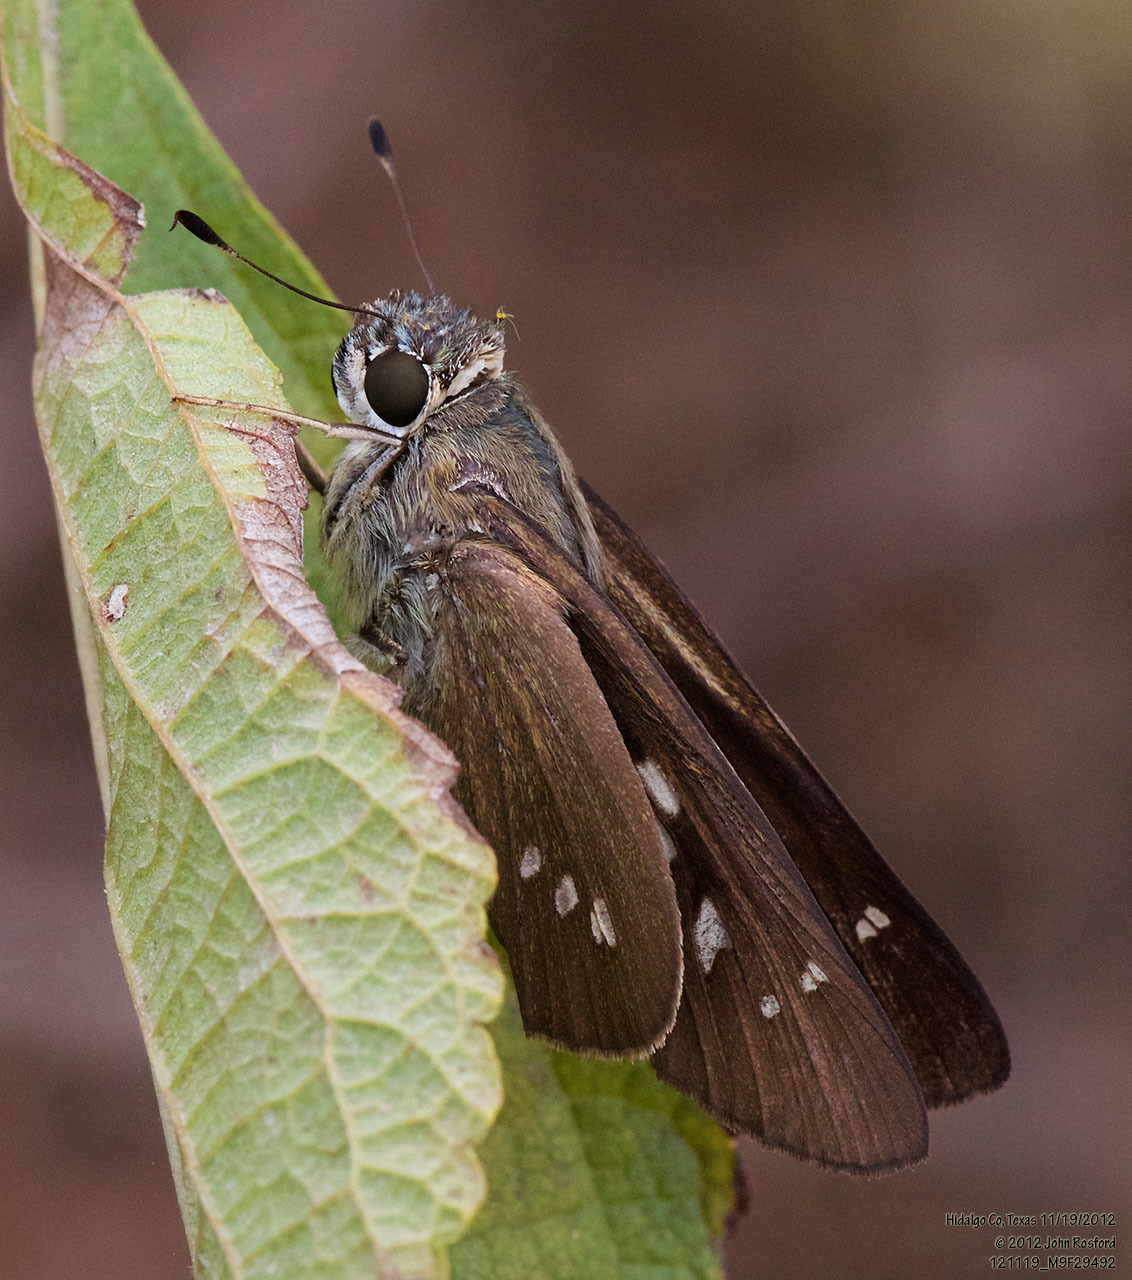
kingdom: Animalia
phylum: Arthropoda
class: Insecta
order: Lepidoptera
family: Hesperiidae
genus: Calpodes
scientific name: Calpodes ethlius
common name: Brazilian skipper
